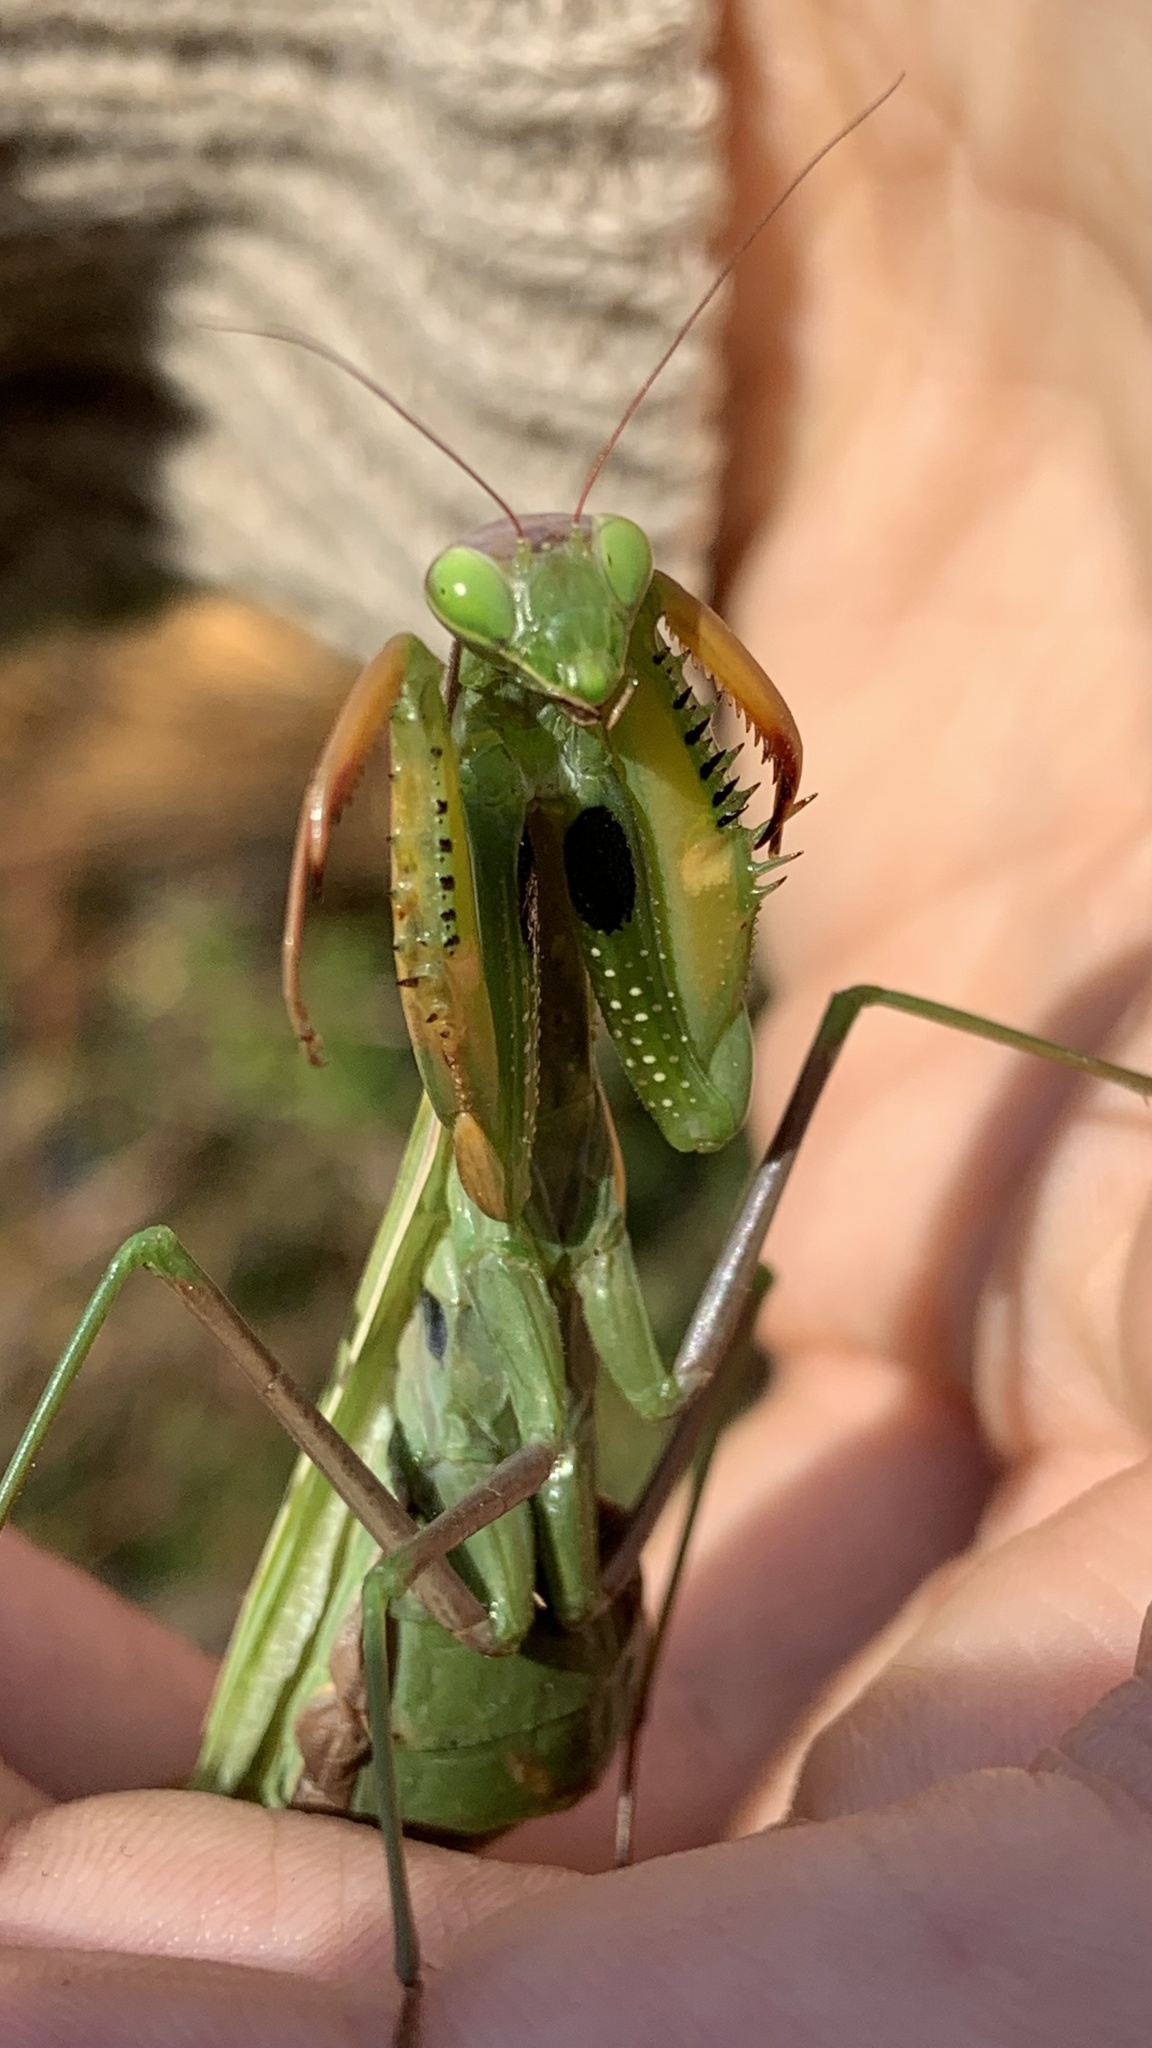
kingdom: Animalia
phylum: Arthropoda
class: Insecta
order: Mantodea
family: Mantidae
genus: Mantis
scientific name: Mantis religiosa
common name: Praying mantis
